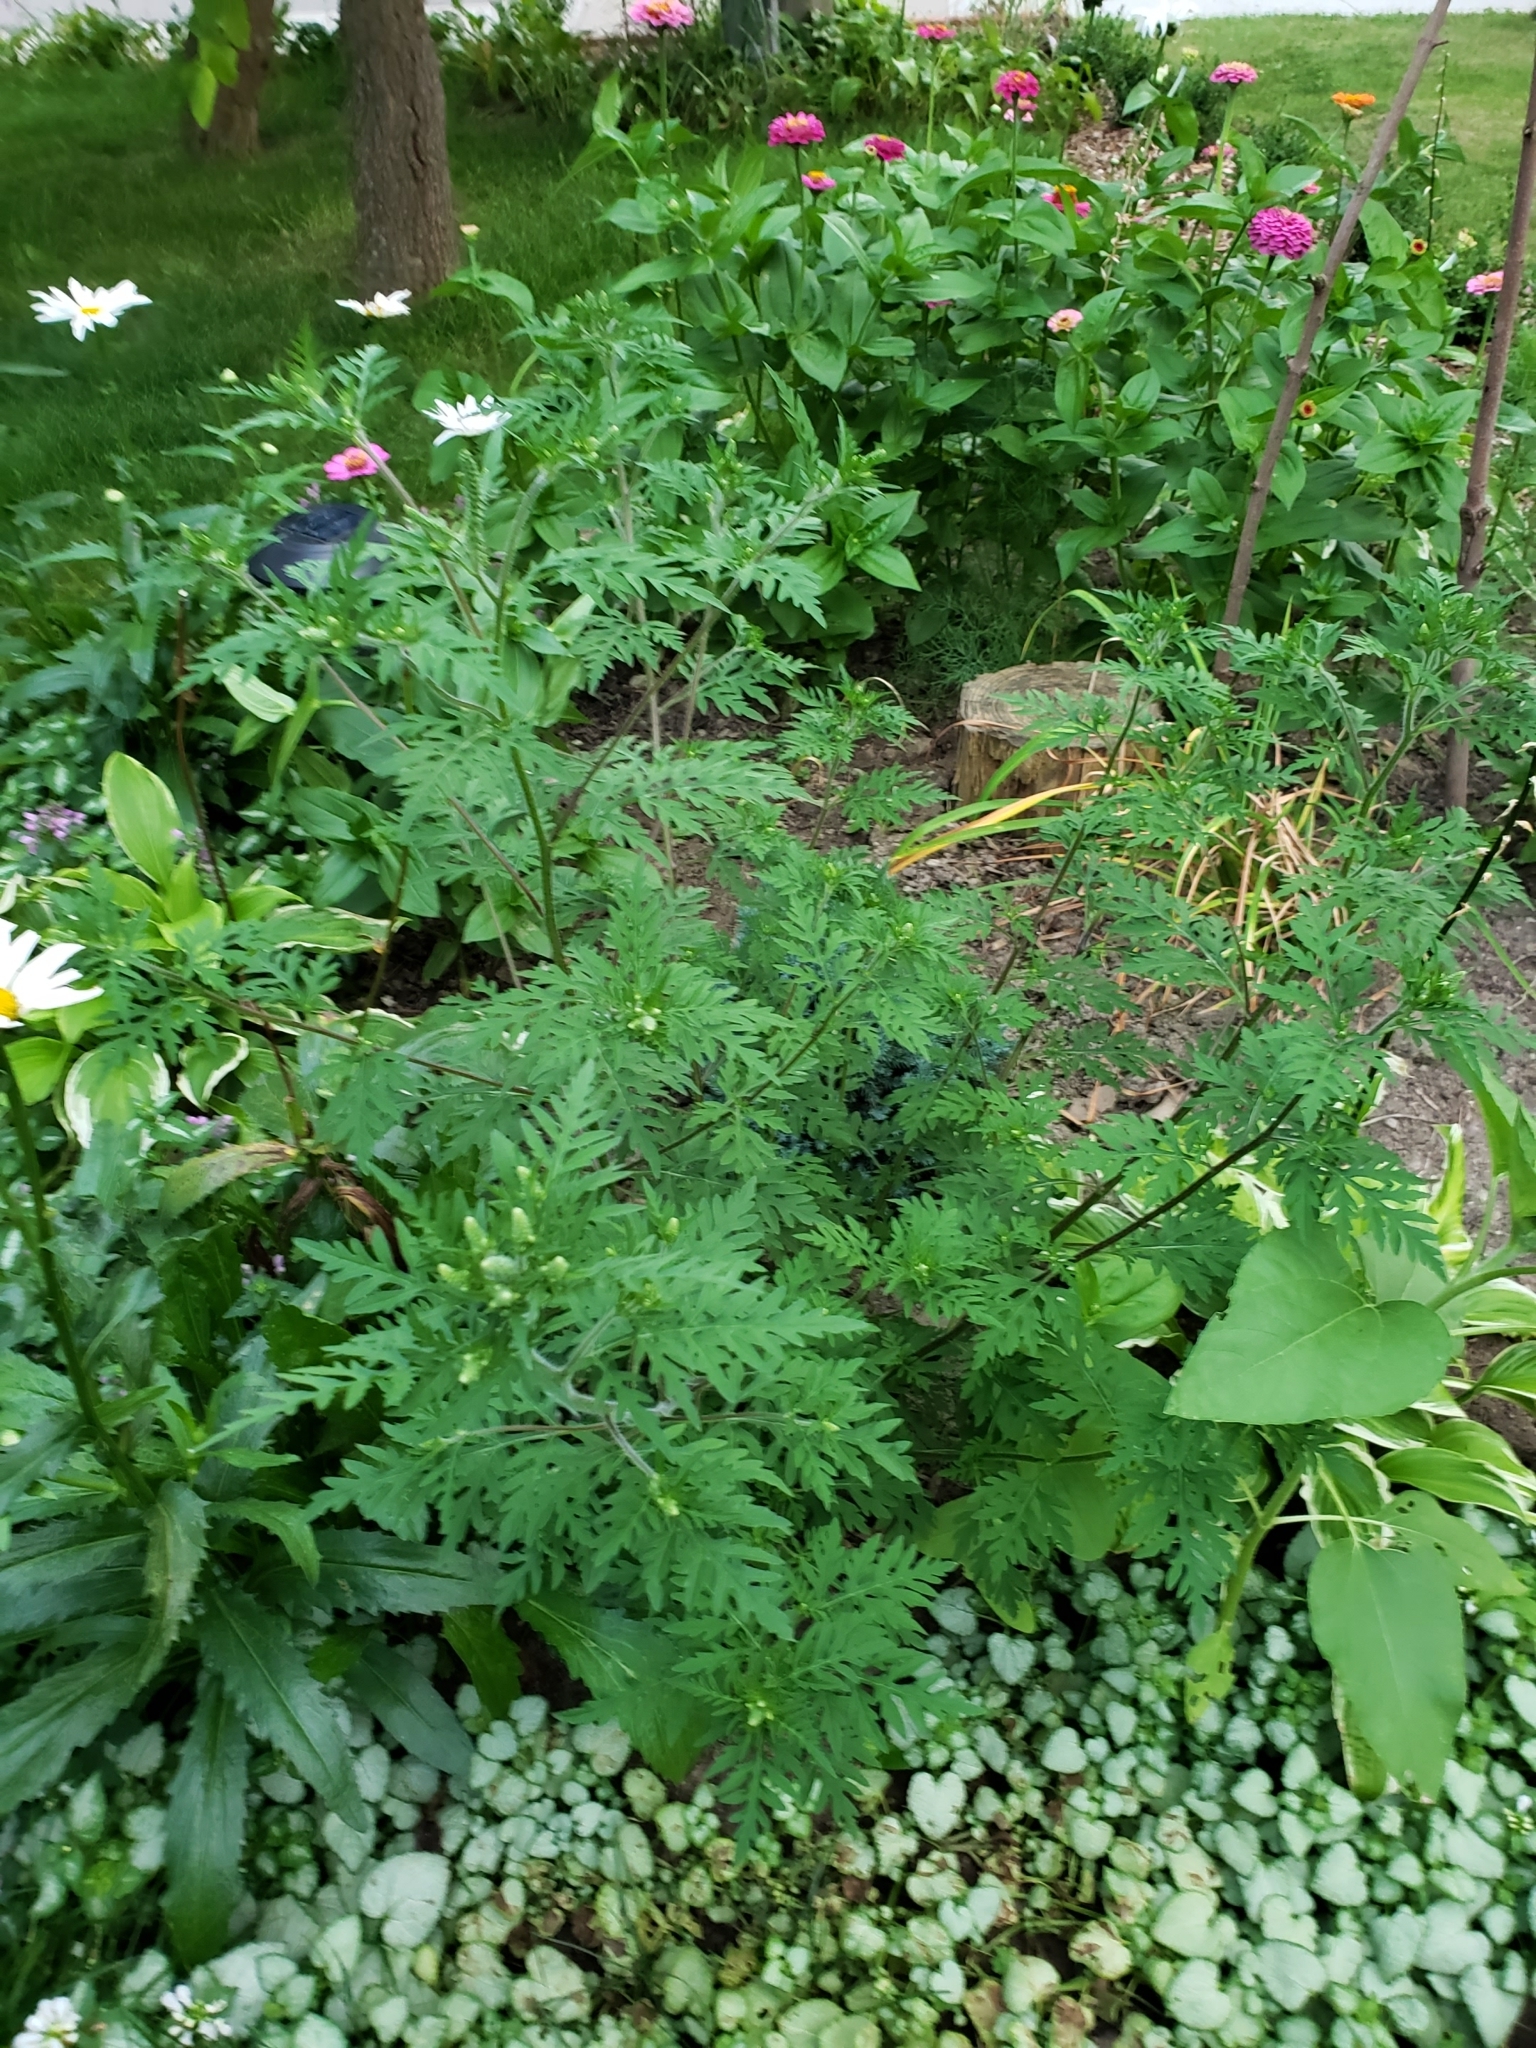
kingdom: Plantae
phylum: Tracheophyta
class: Magnoliopsida
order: Asterales
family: Asteraceae
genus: Ambrosia
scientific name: Ambrosia artemisiifolia
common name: Annual ragweed
